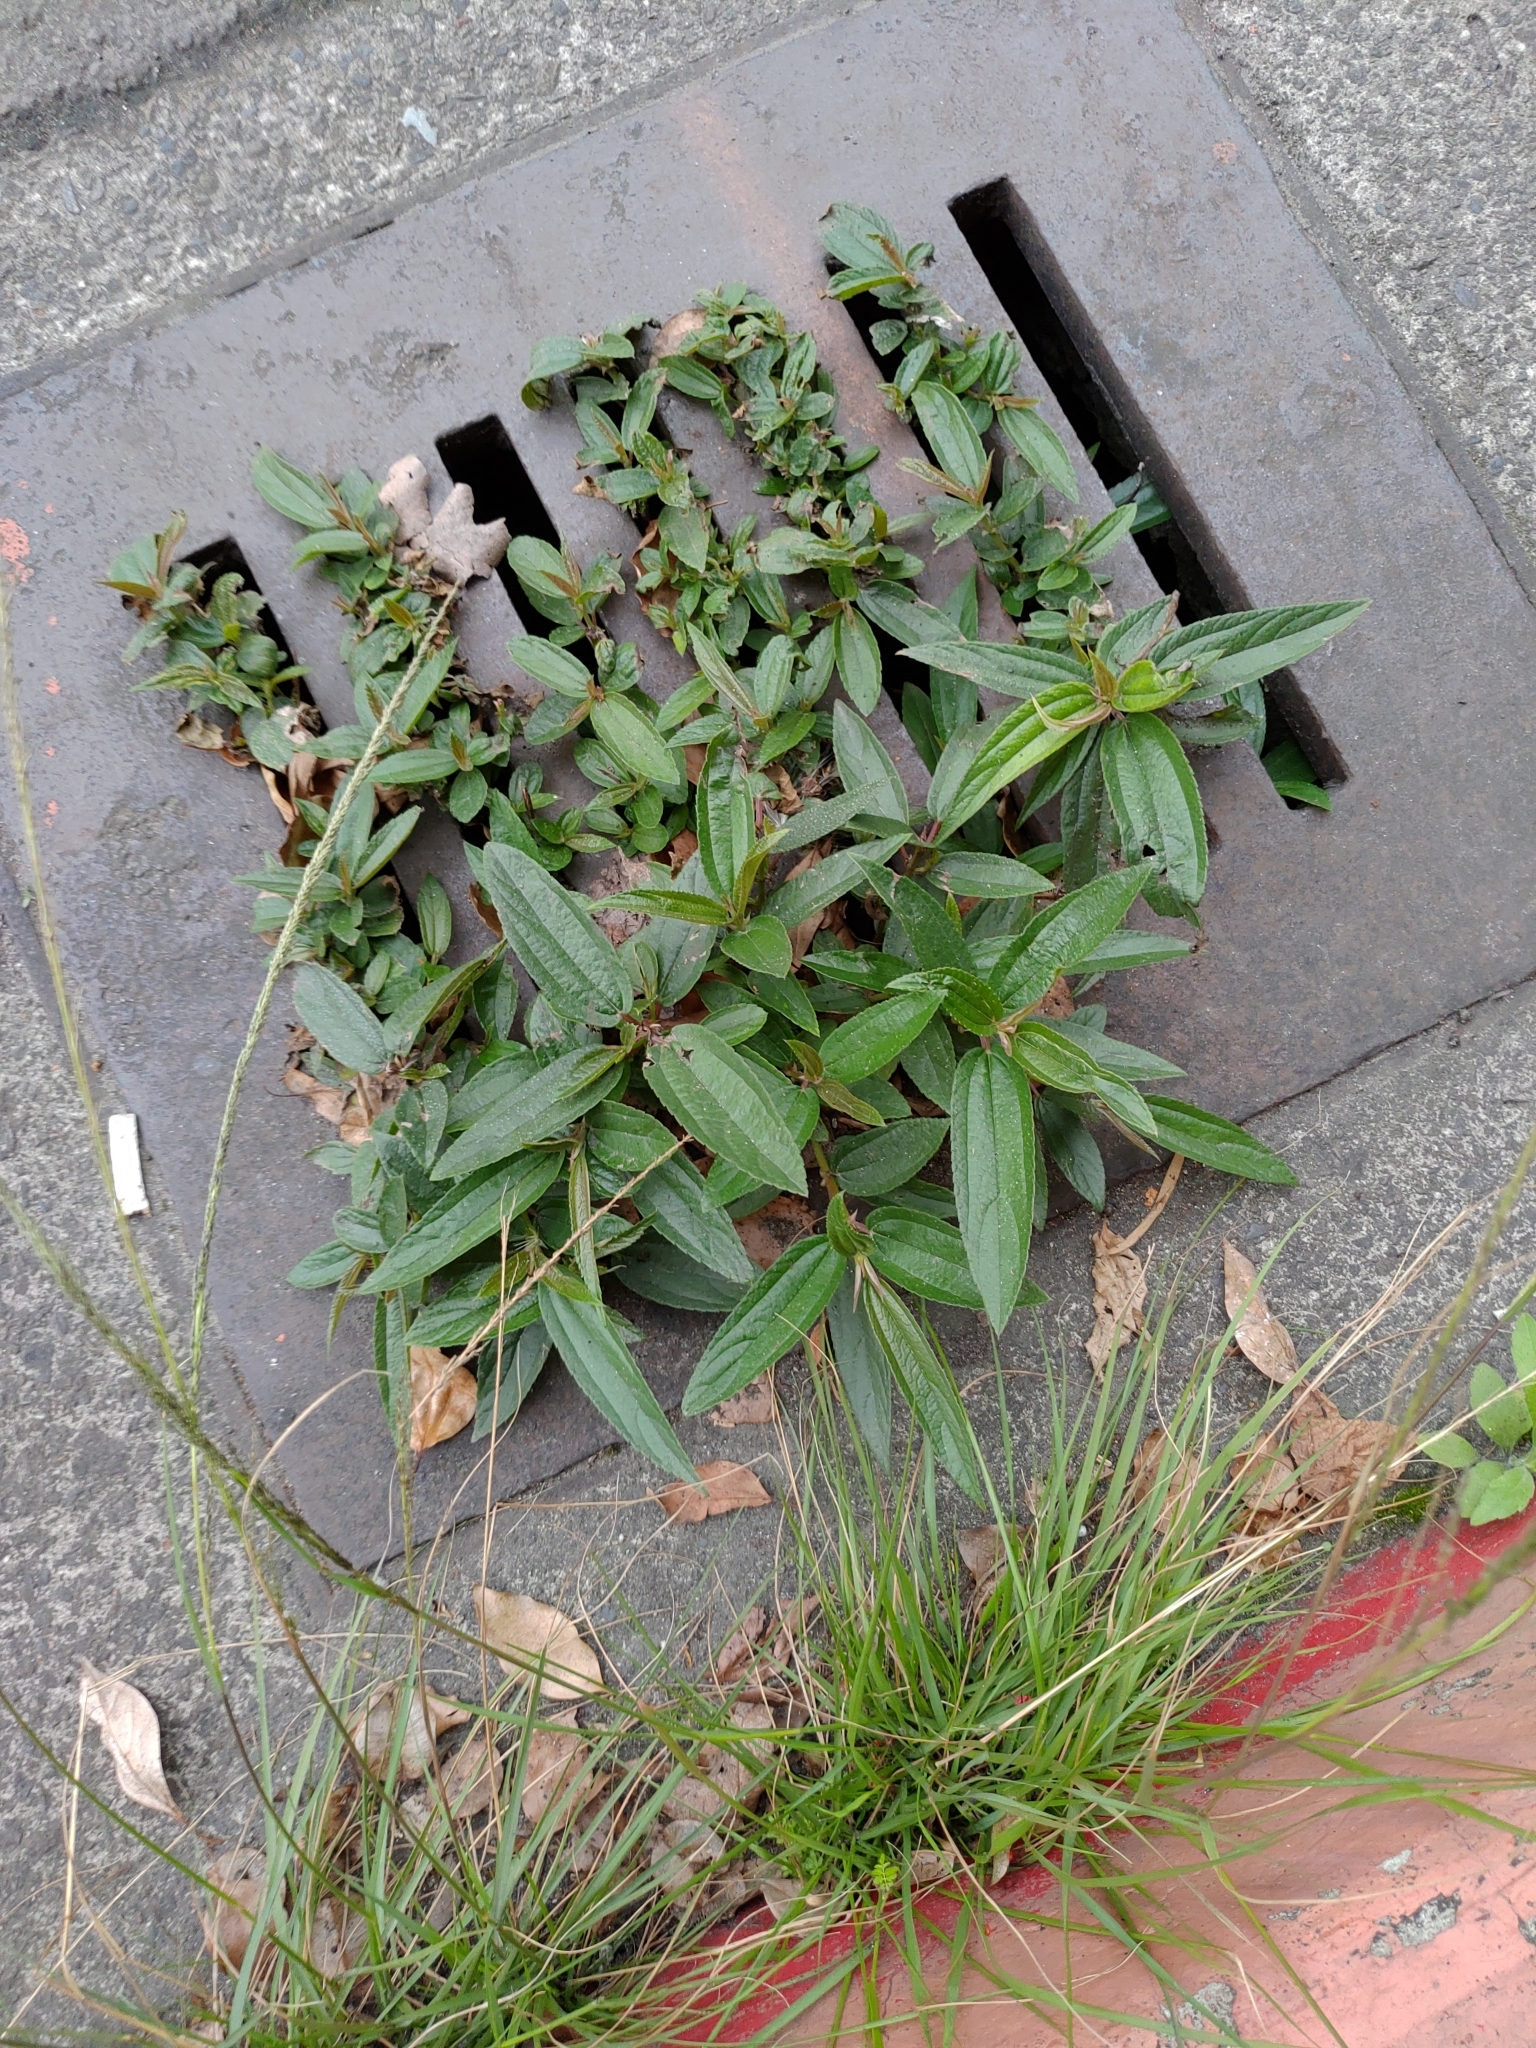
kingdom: Plantae
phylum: Tracheophyta
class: Magnoliopsida
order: Rosales
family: Urticaceae
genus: Boehmeria
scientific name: Boehmeria densiflora
